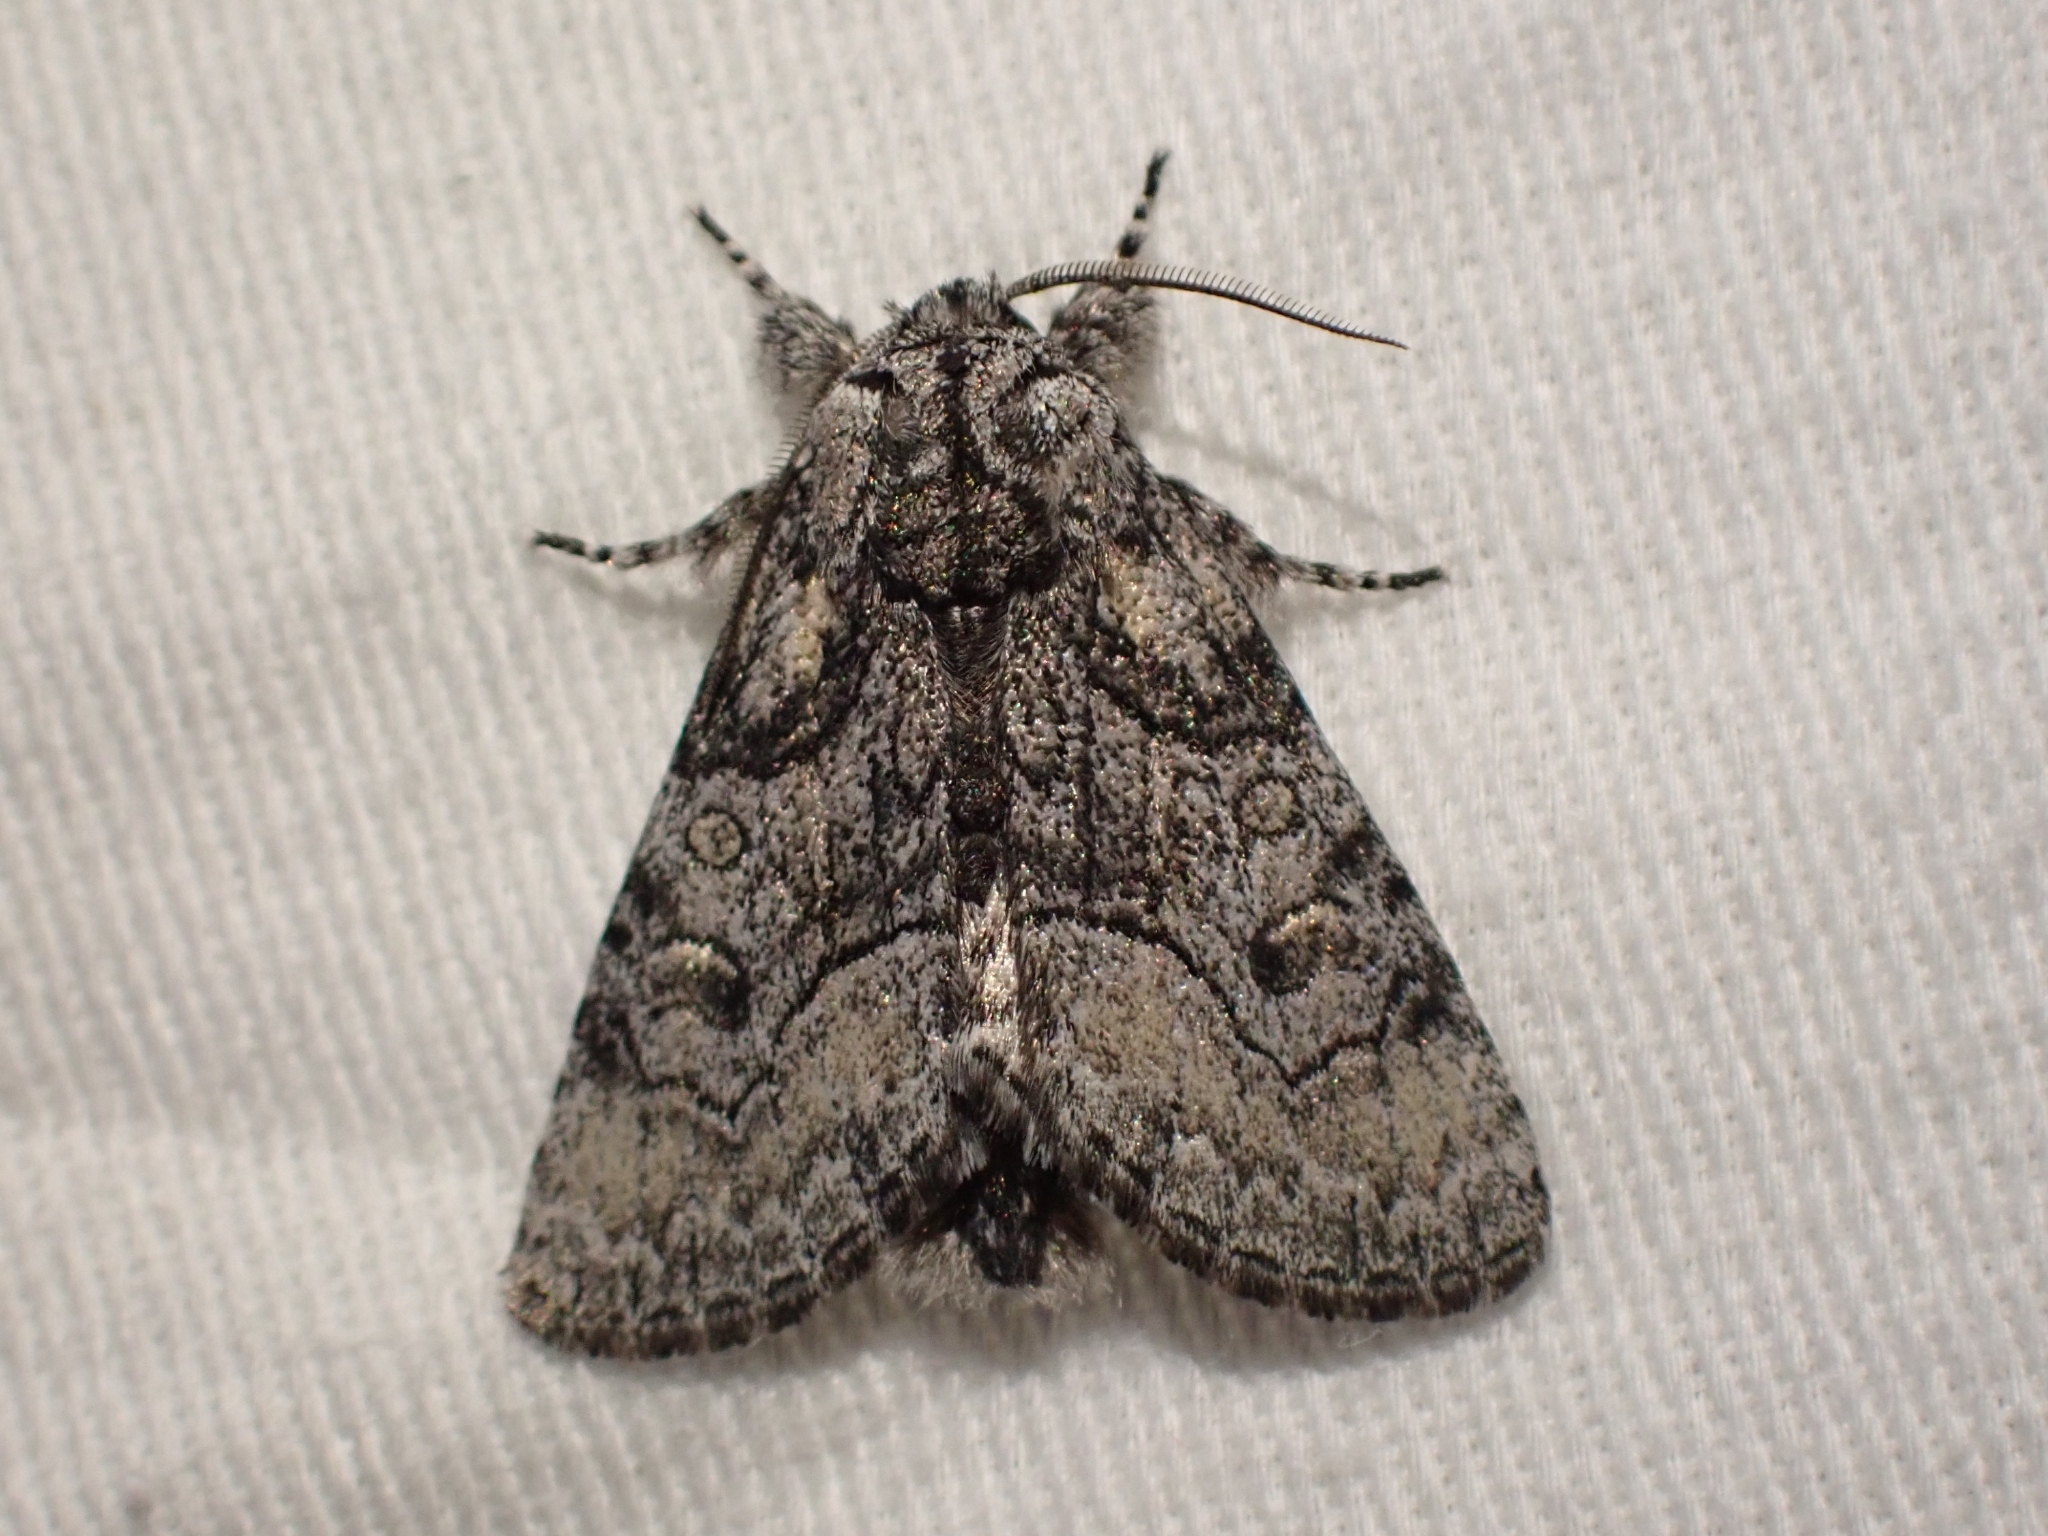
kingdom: Animalia
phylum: Arthropoda
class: Insecta
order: Lepidoptera
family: Noctuidae
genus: Raphia
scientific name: Raphia frater
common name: Brother
